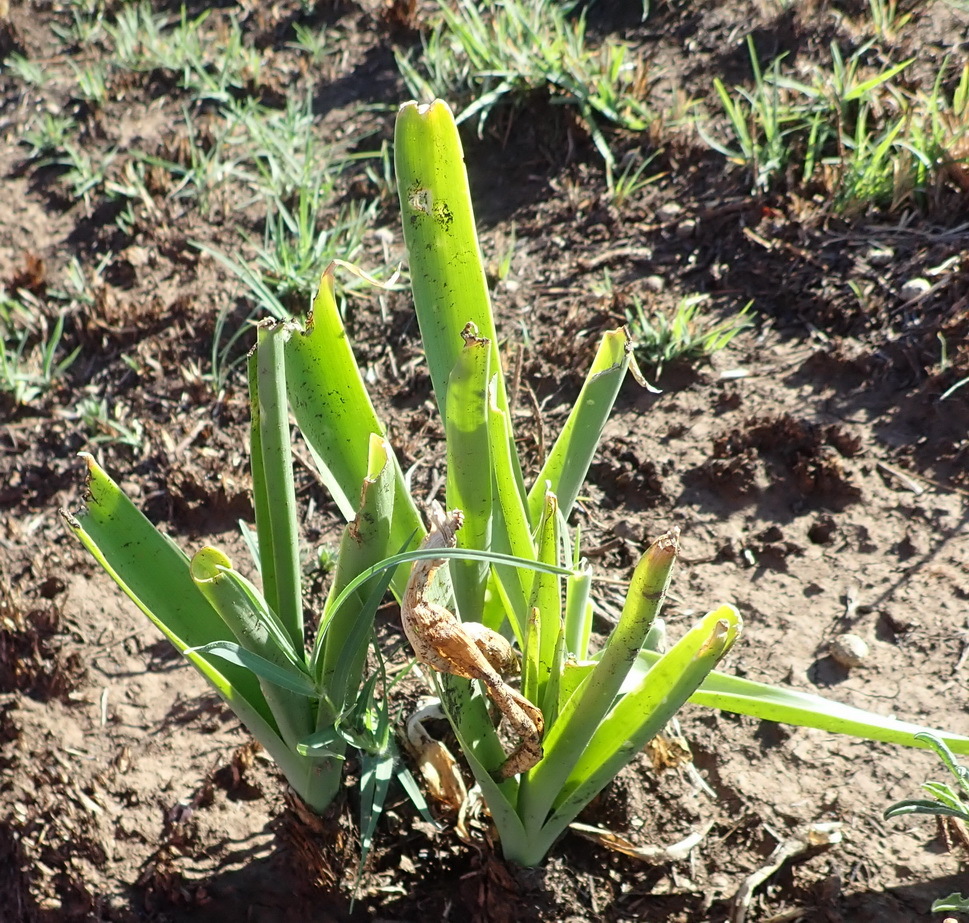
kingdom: Plantae
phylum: Tracheophyta
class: Liliopsida
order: Asparagales
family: Asparagaceae
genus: Albuca
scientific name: Albuca setosa
